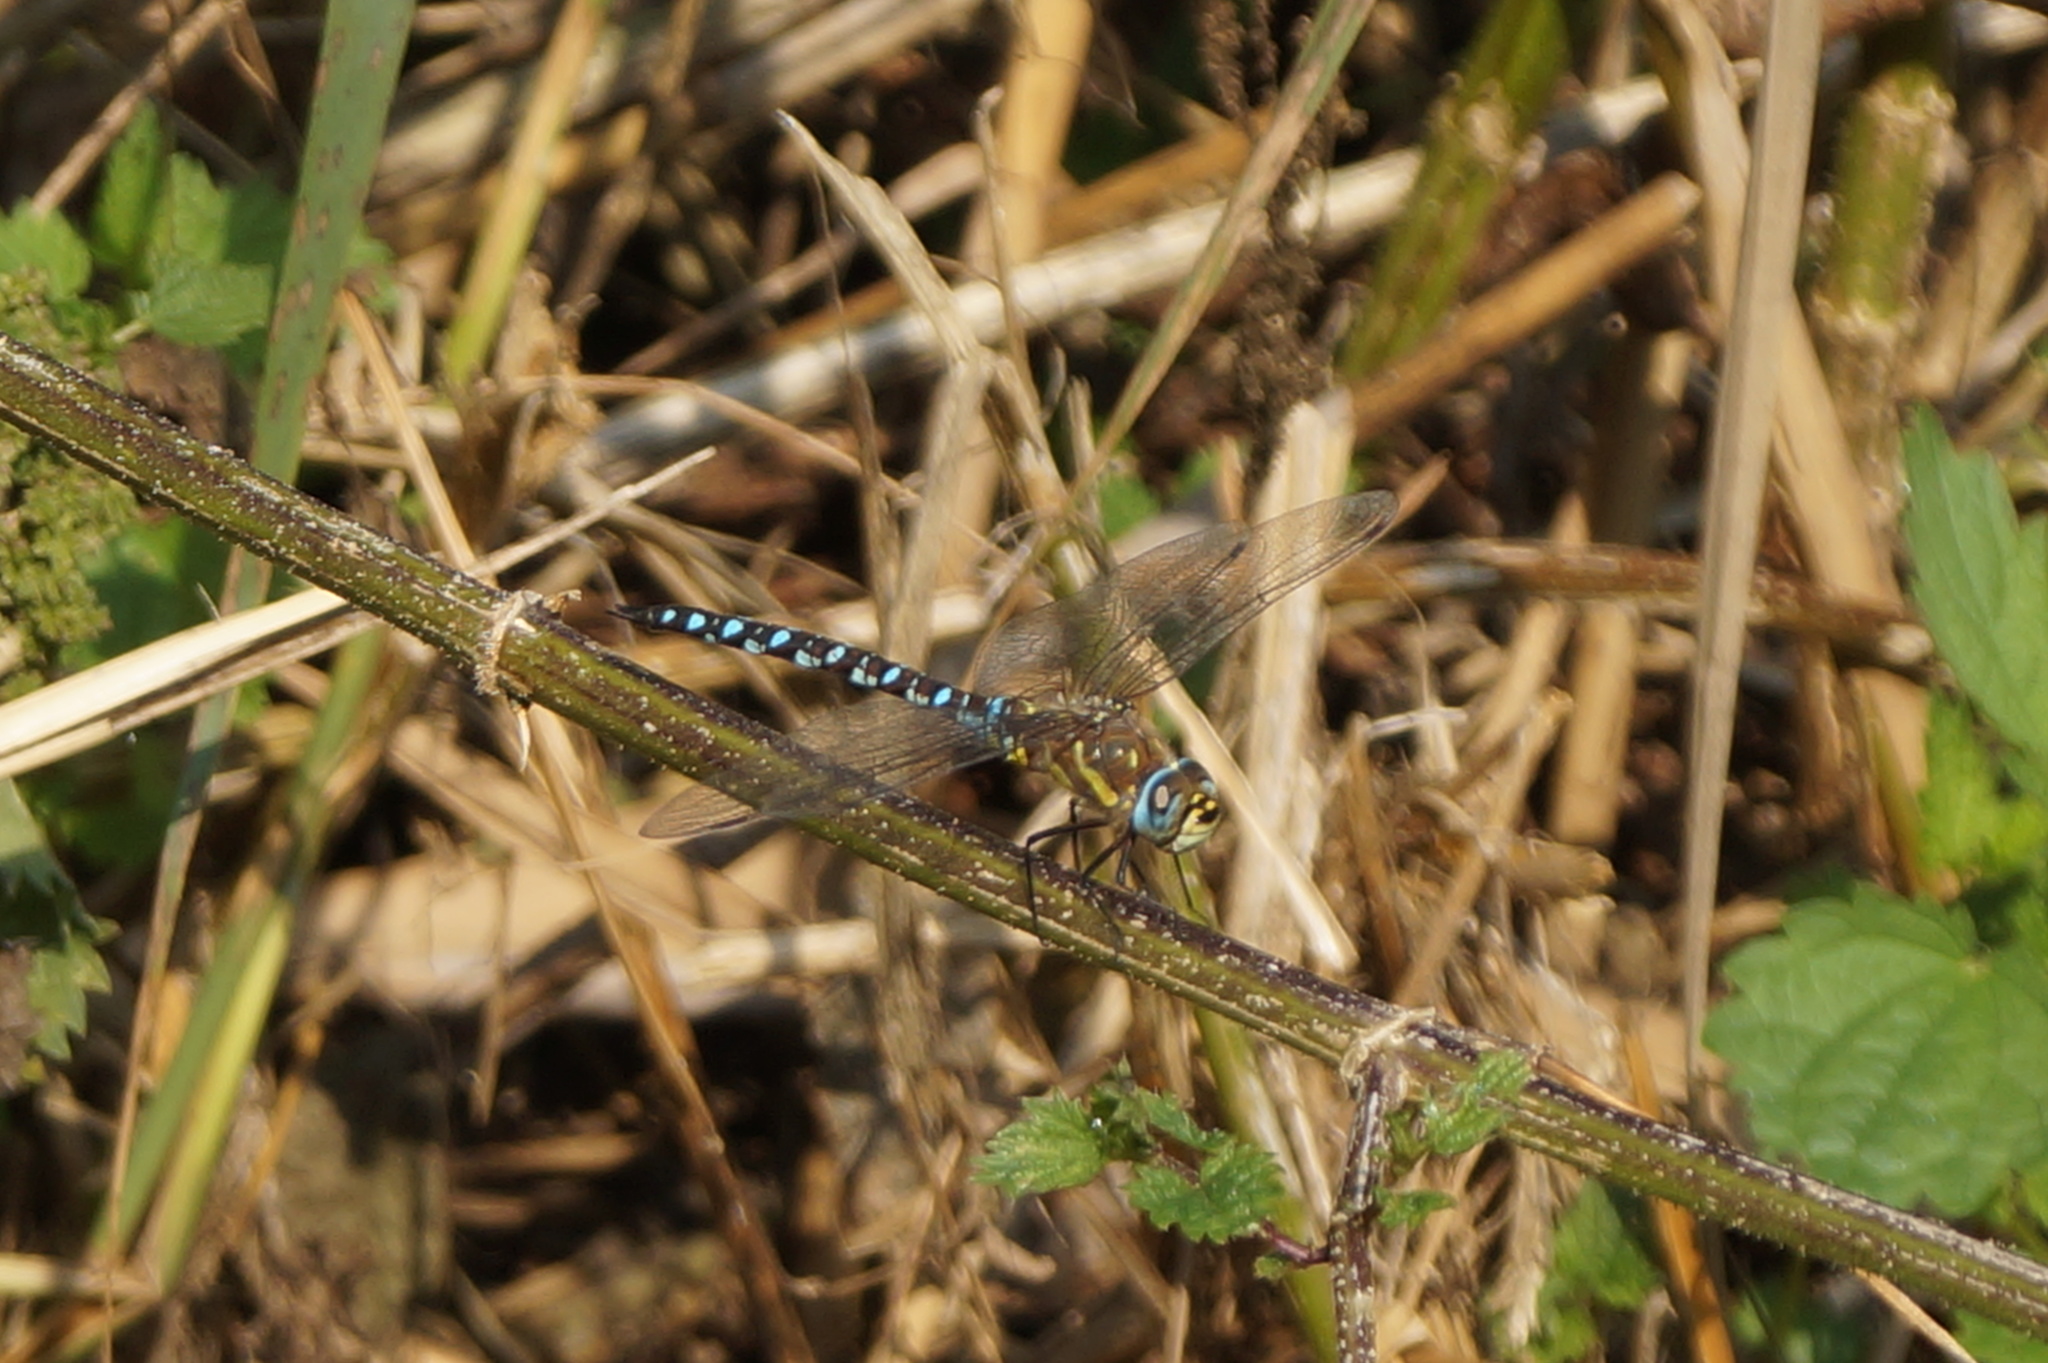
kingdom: Animalia
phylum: Arthropoda
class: Insecta
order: Odonata
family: Aeshnidae
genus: Aeshna
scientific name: Aeshna mixta
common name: Migrant hawker
